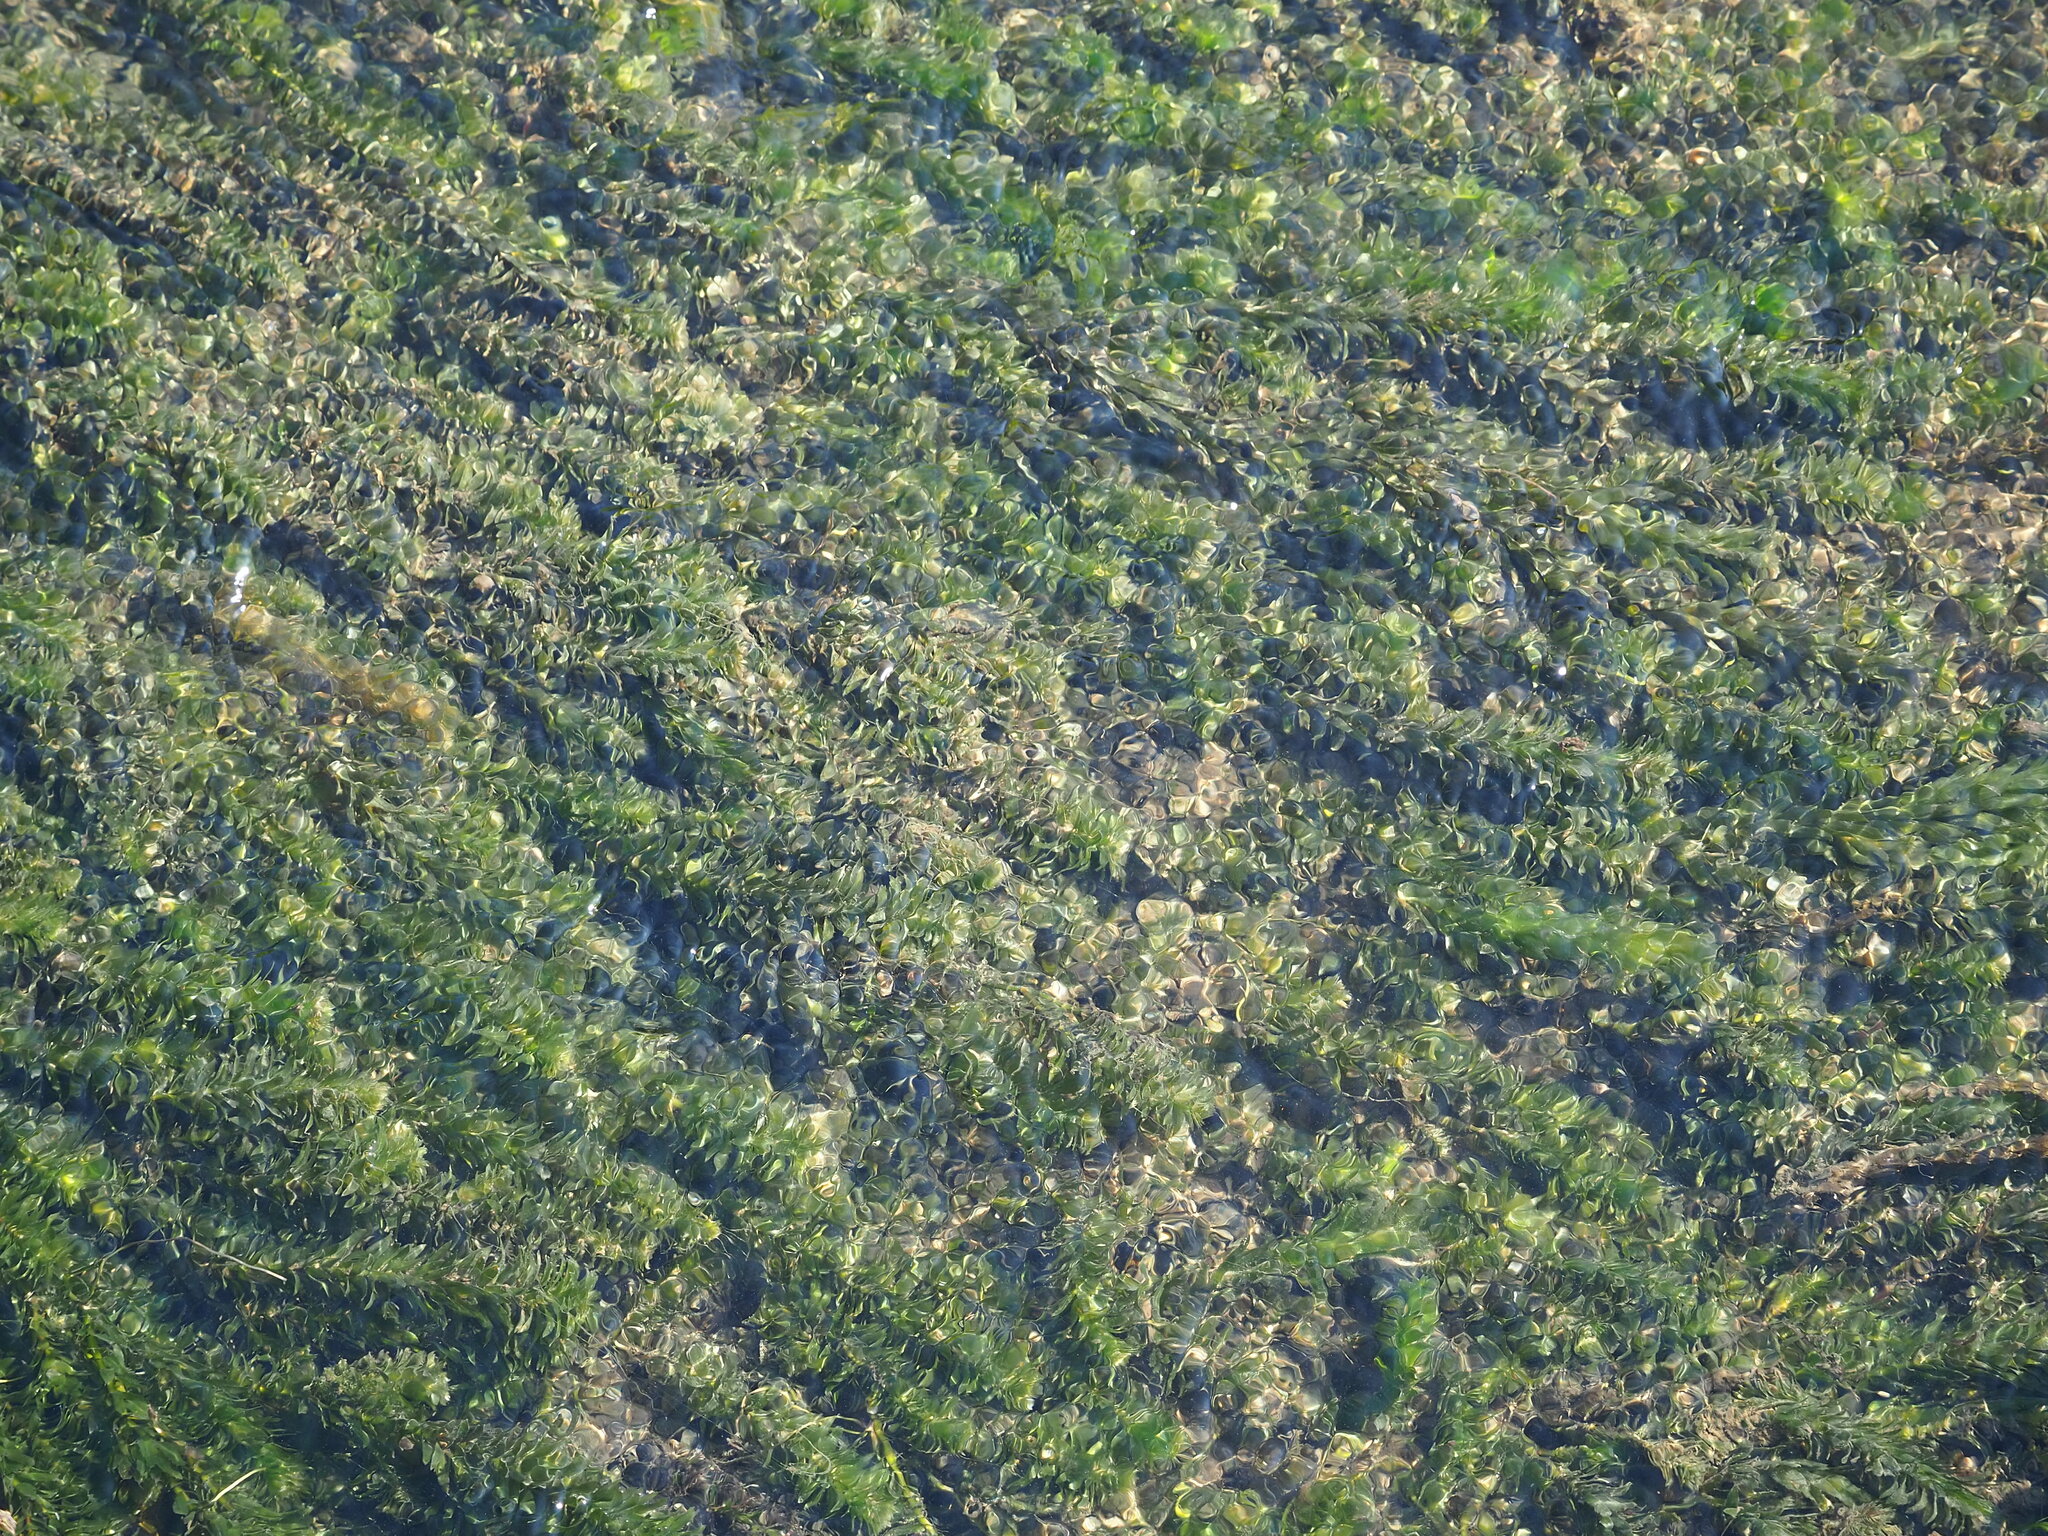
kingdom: Plantae
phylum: Tracheophyta
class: Liliopsida
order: Alismatales
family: Hydrocharitaceae
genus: Elodea
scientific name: Elodea densa
